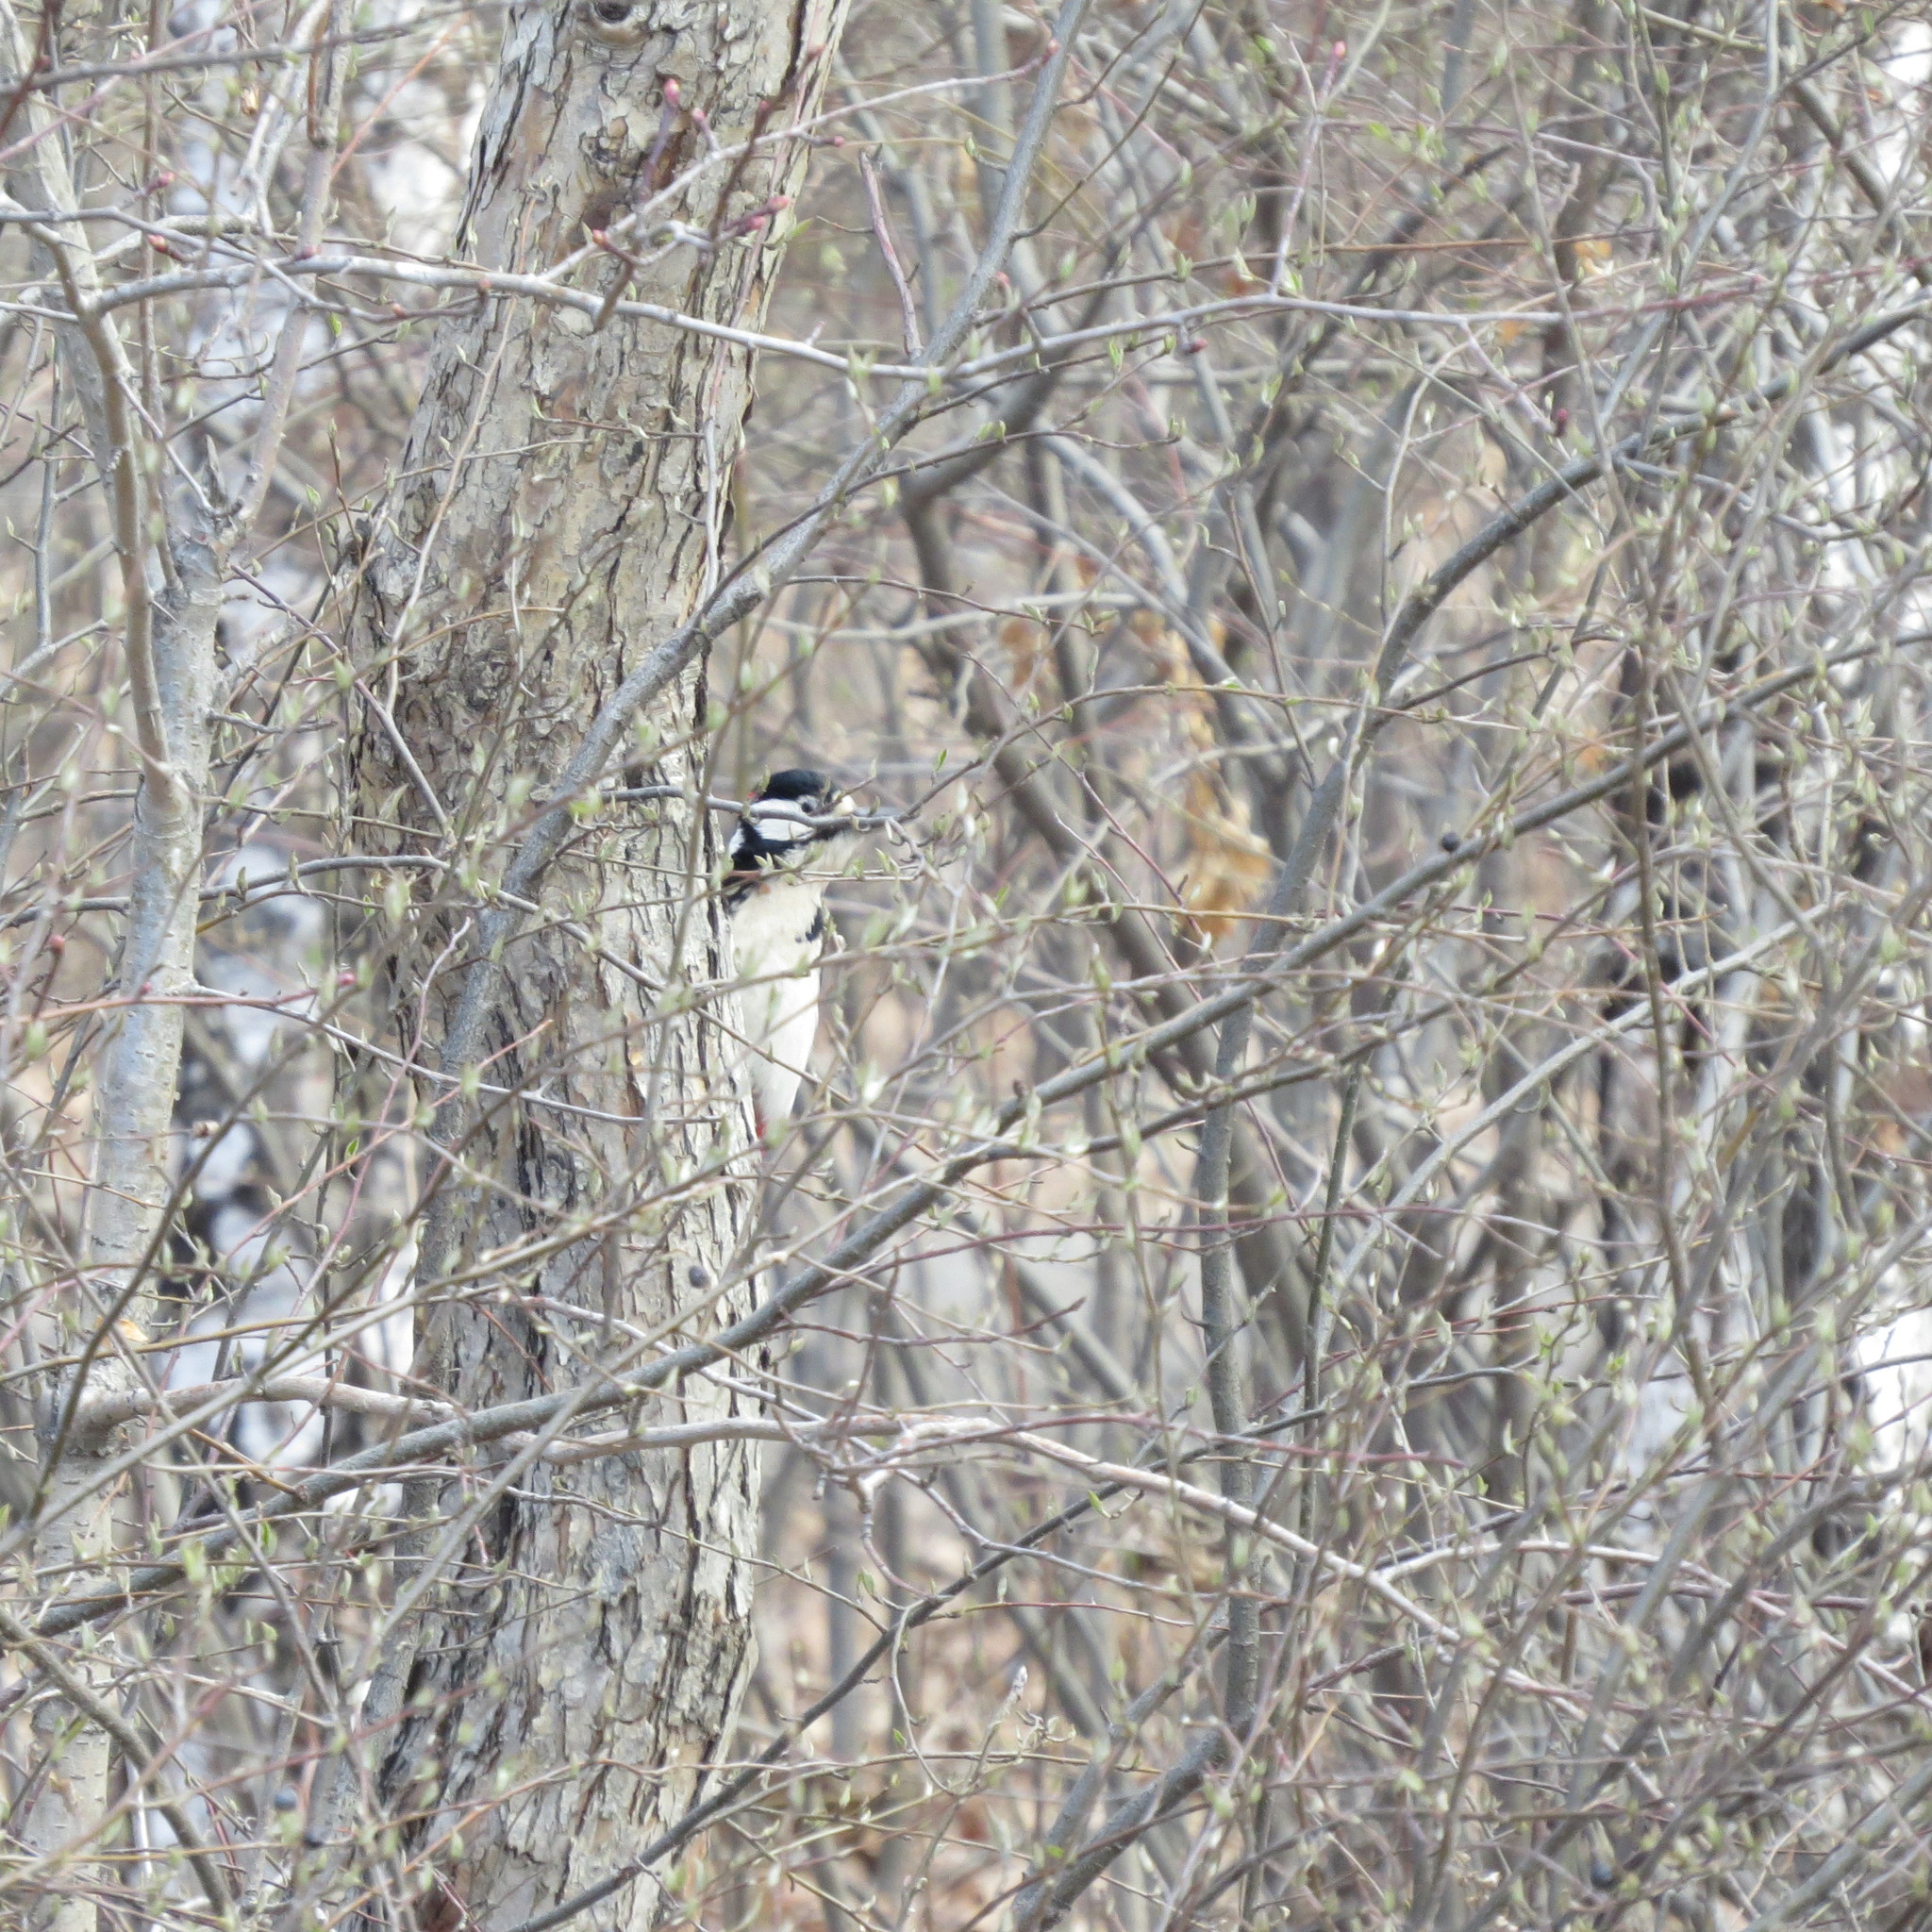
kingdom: Animalia
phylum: Chordata
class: Aves
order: Piciformes
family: Picidae
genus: Dendrocopos
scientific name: Dendrocopos major
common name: Great spotted woodpecker
